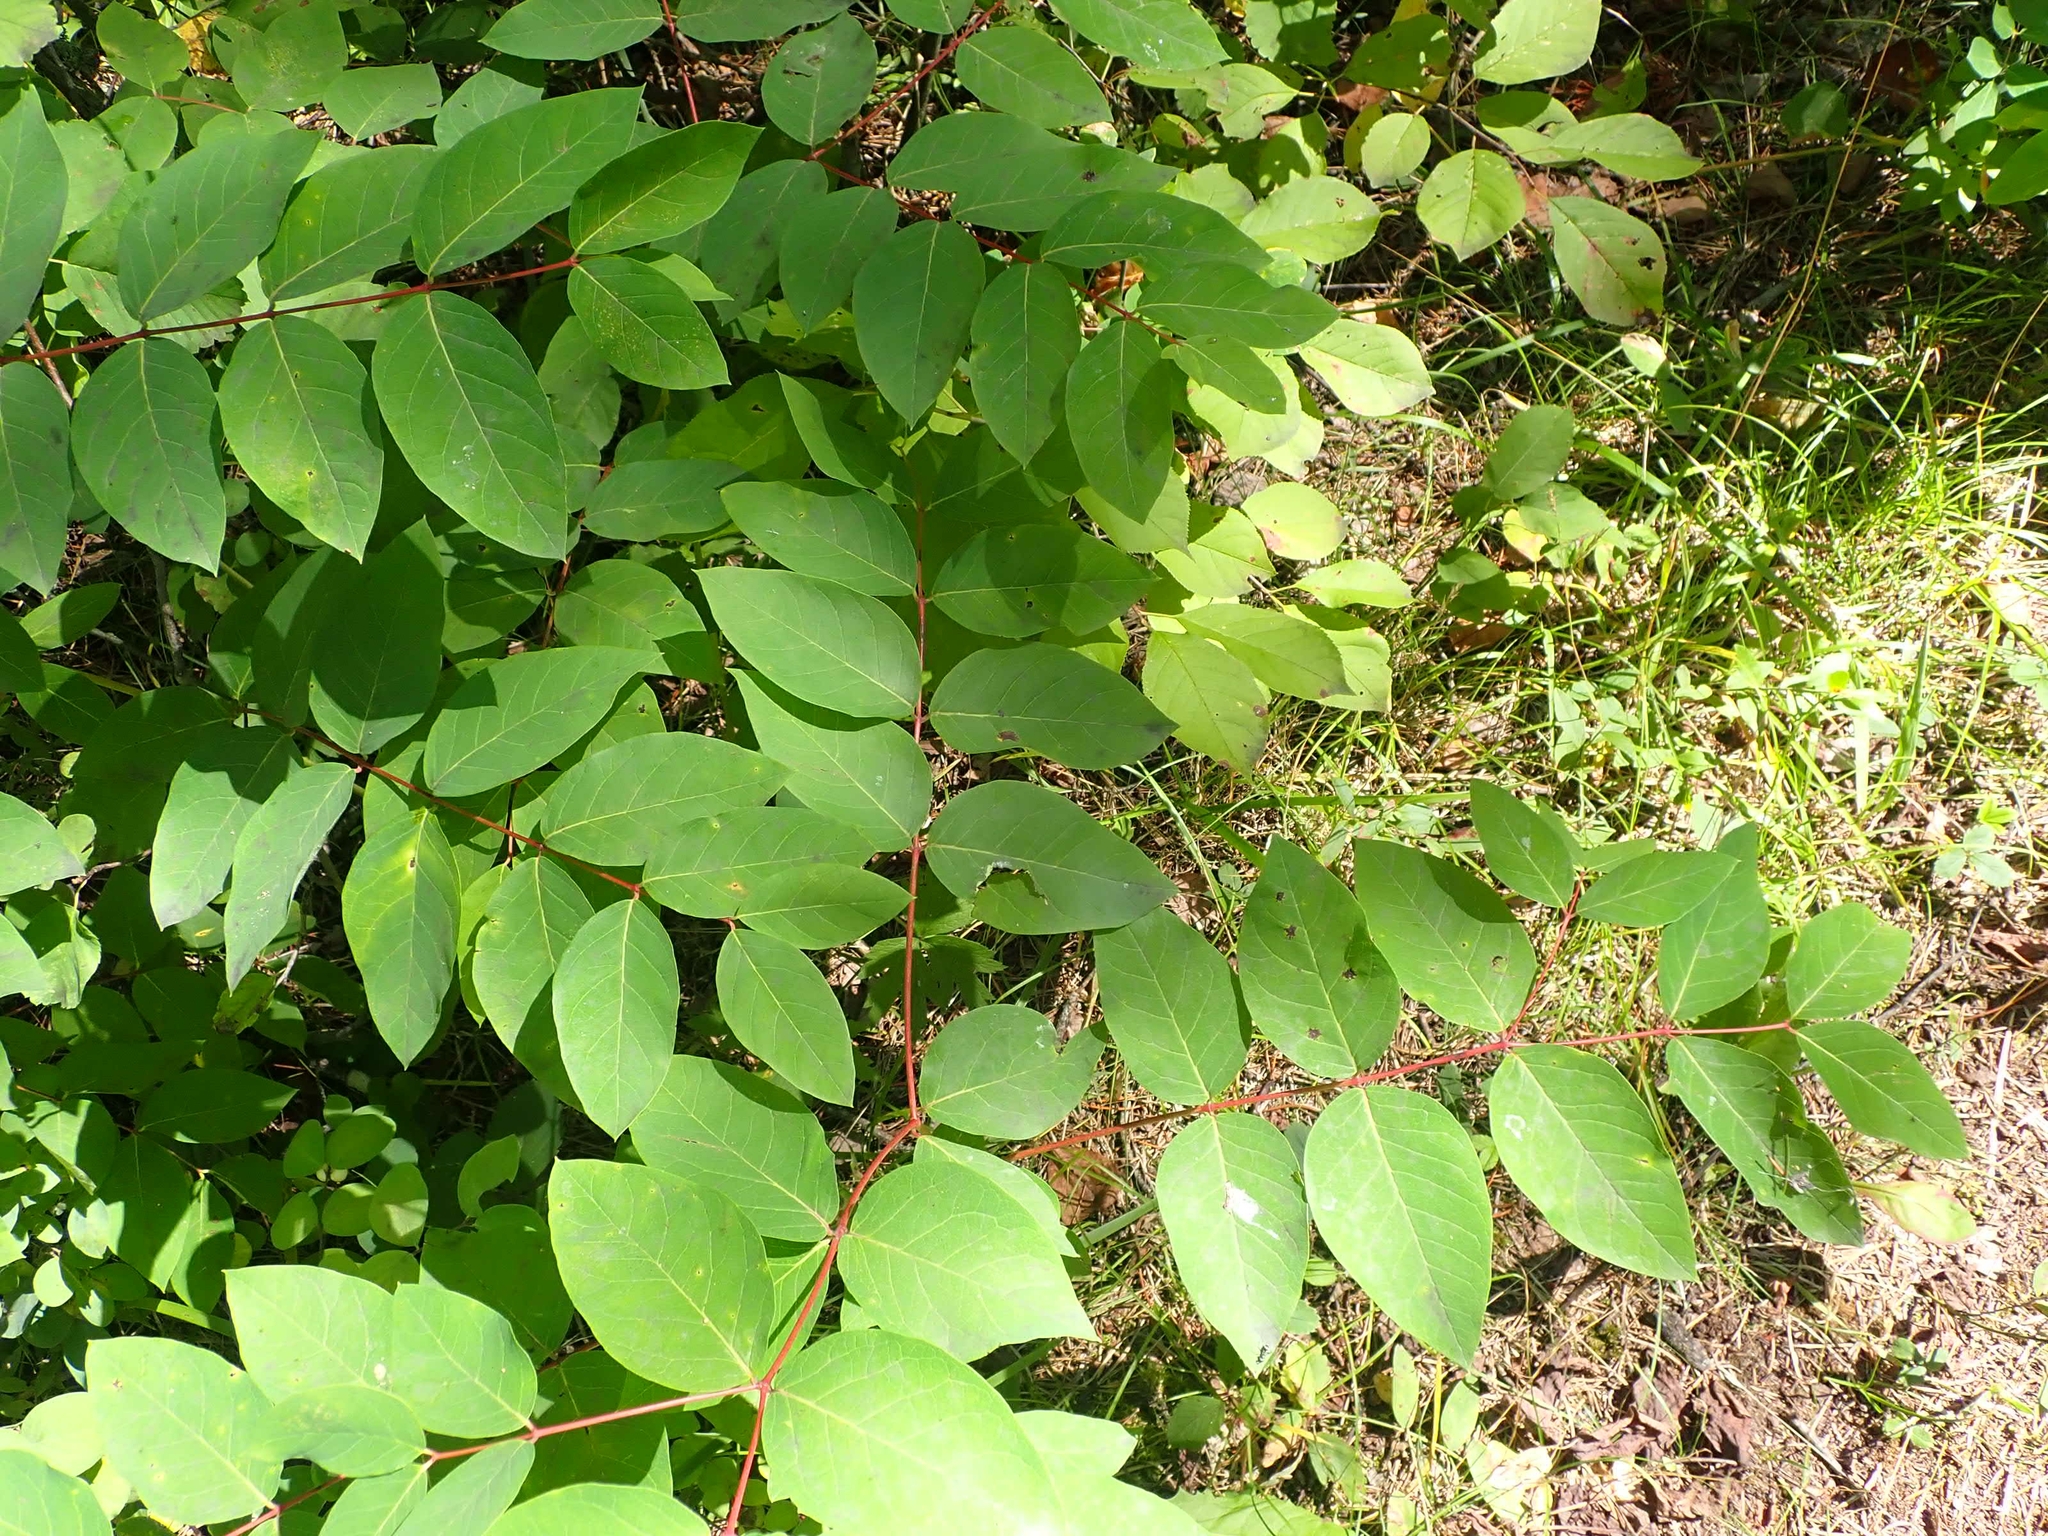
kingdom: Plantae
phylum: Tracheophyta
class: Magnoliopsida
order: Gentianales
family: Apocynaceae
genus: Apocynum
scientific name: Apocynum androsaemifolium
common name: Spreading dogbane
